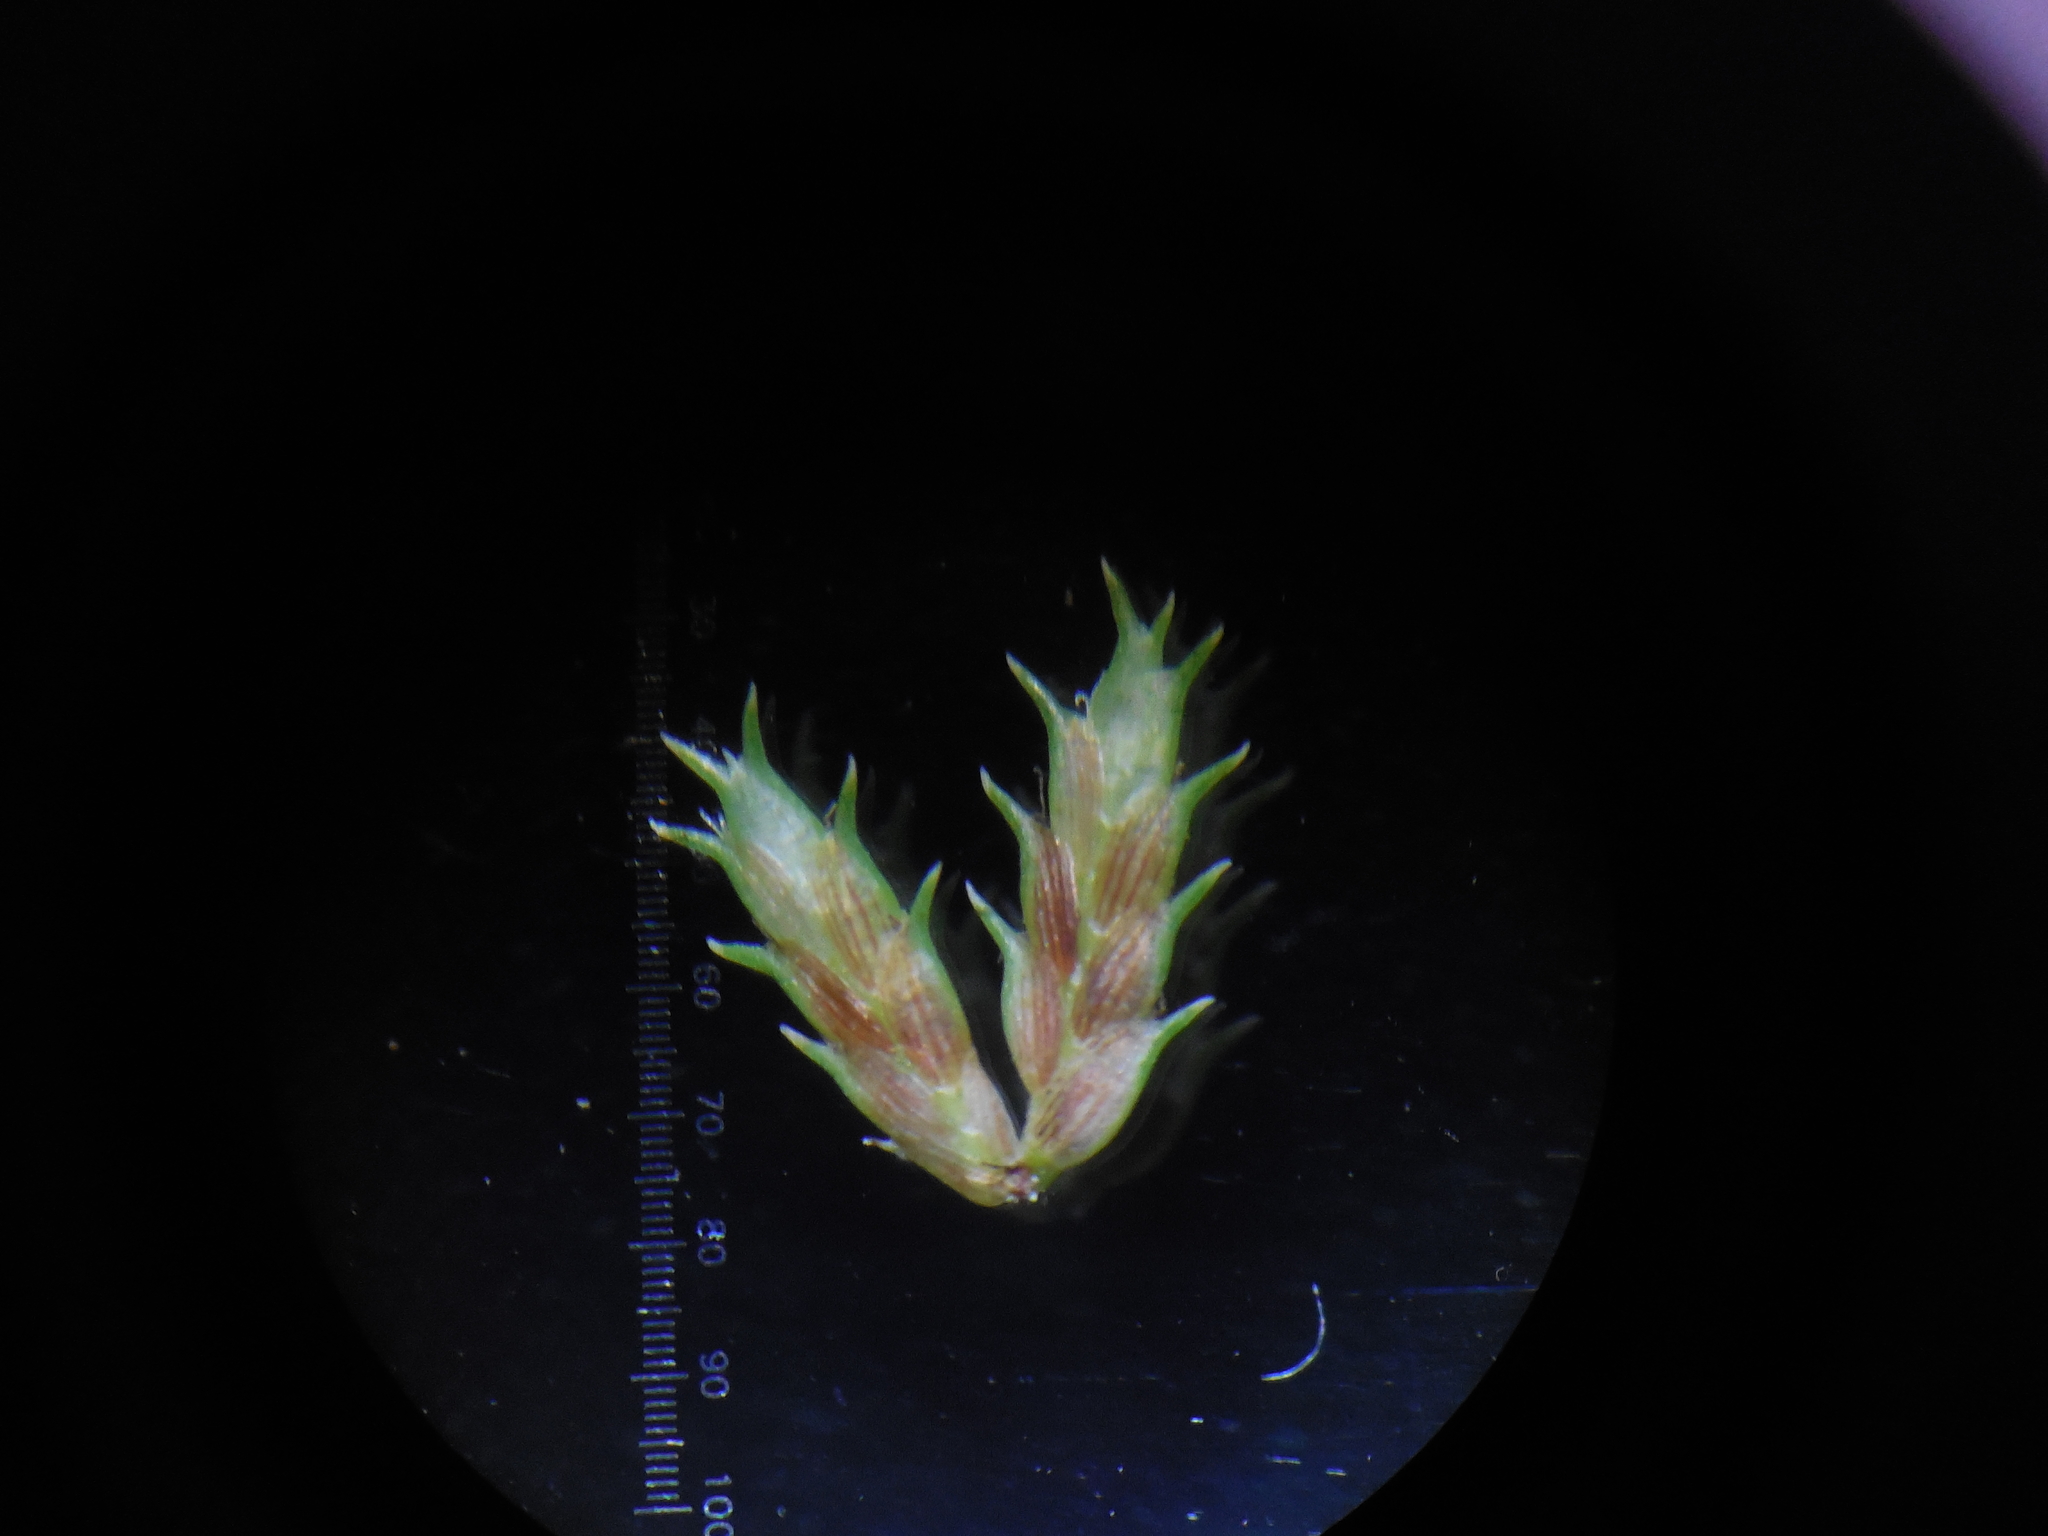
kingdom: Plantae
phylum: Tracheophyta
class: Liliopsida
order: Poales
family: Cyperaceae
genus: Cyperus
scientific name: Cyperus squarrosus
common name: Awned cyperus
